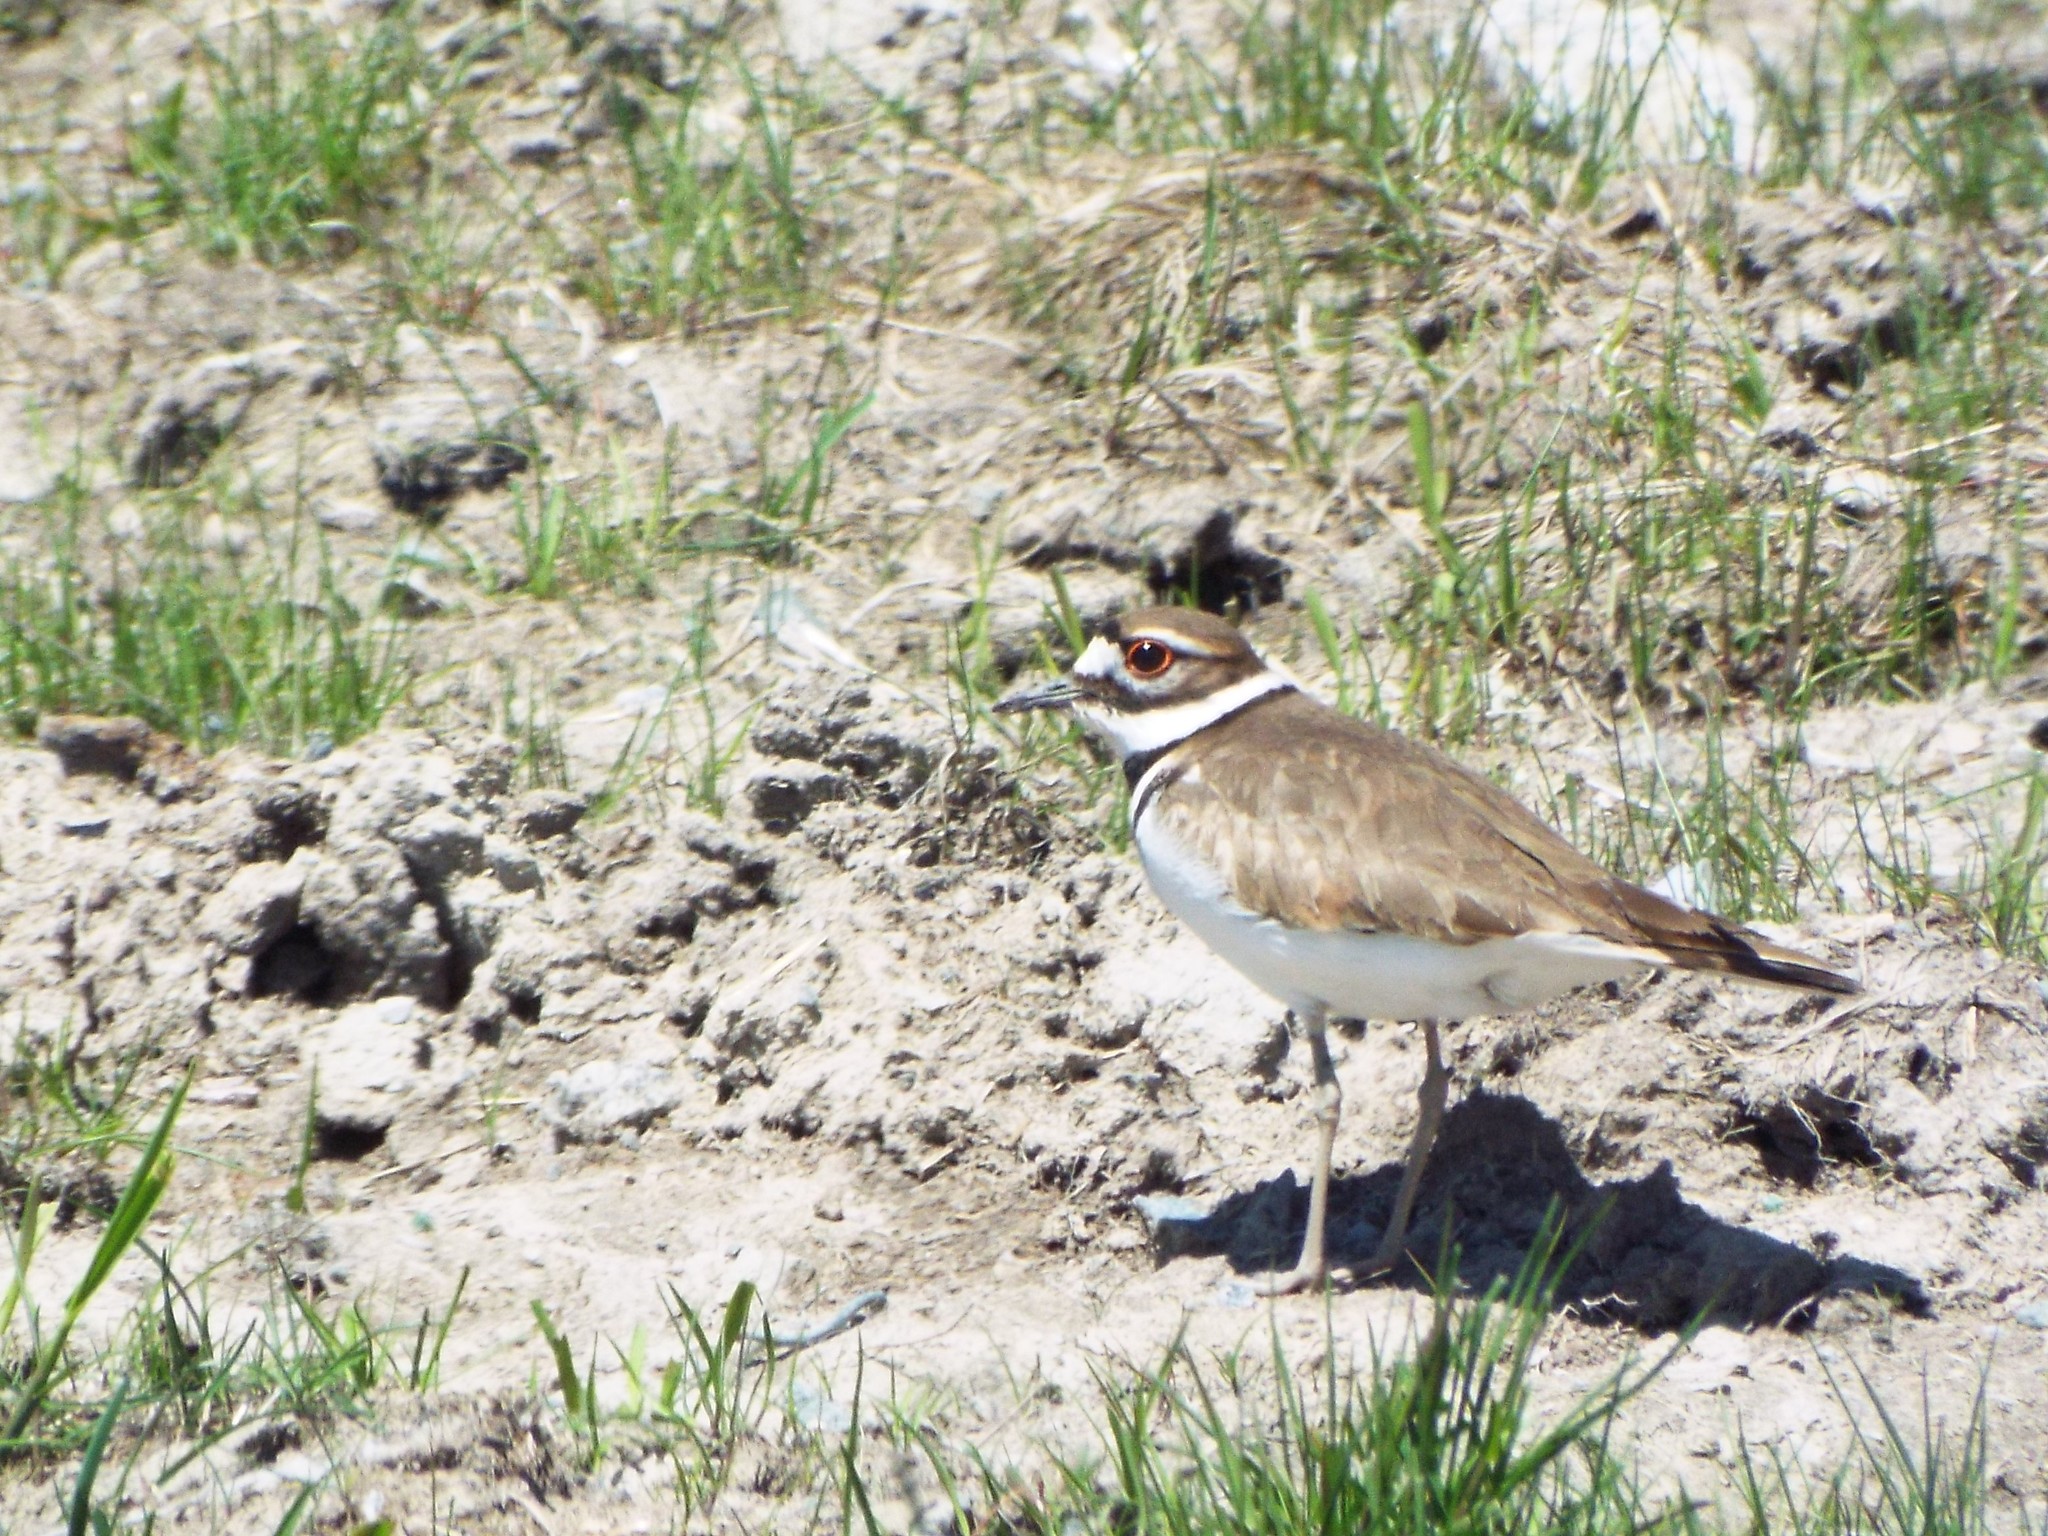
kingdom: Animalia
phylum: Chordata
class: Aves
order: Charadriiformes
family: Charadriidae
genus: Charadrius
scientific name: Charadrius vociferus
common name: Killdeer
